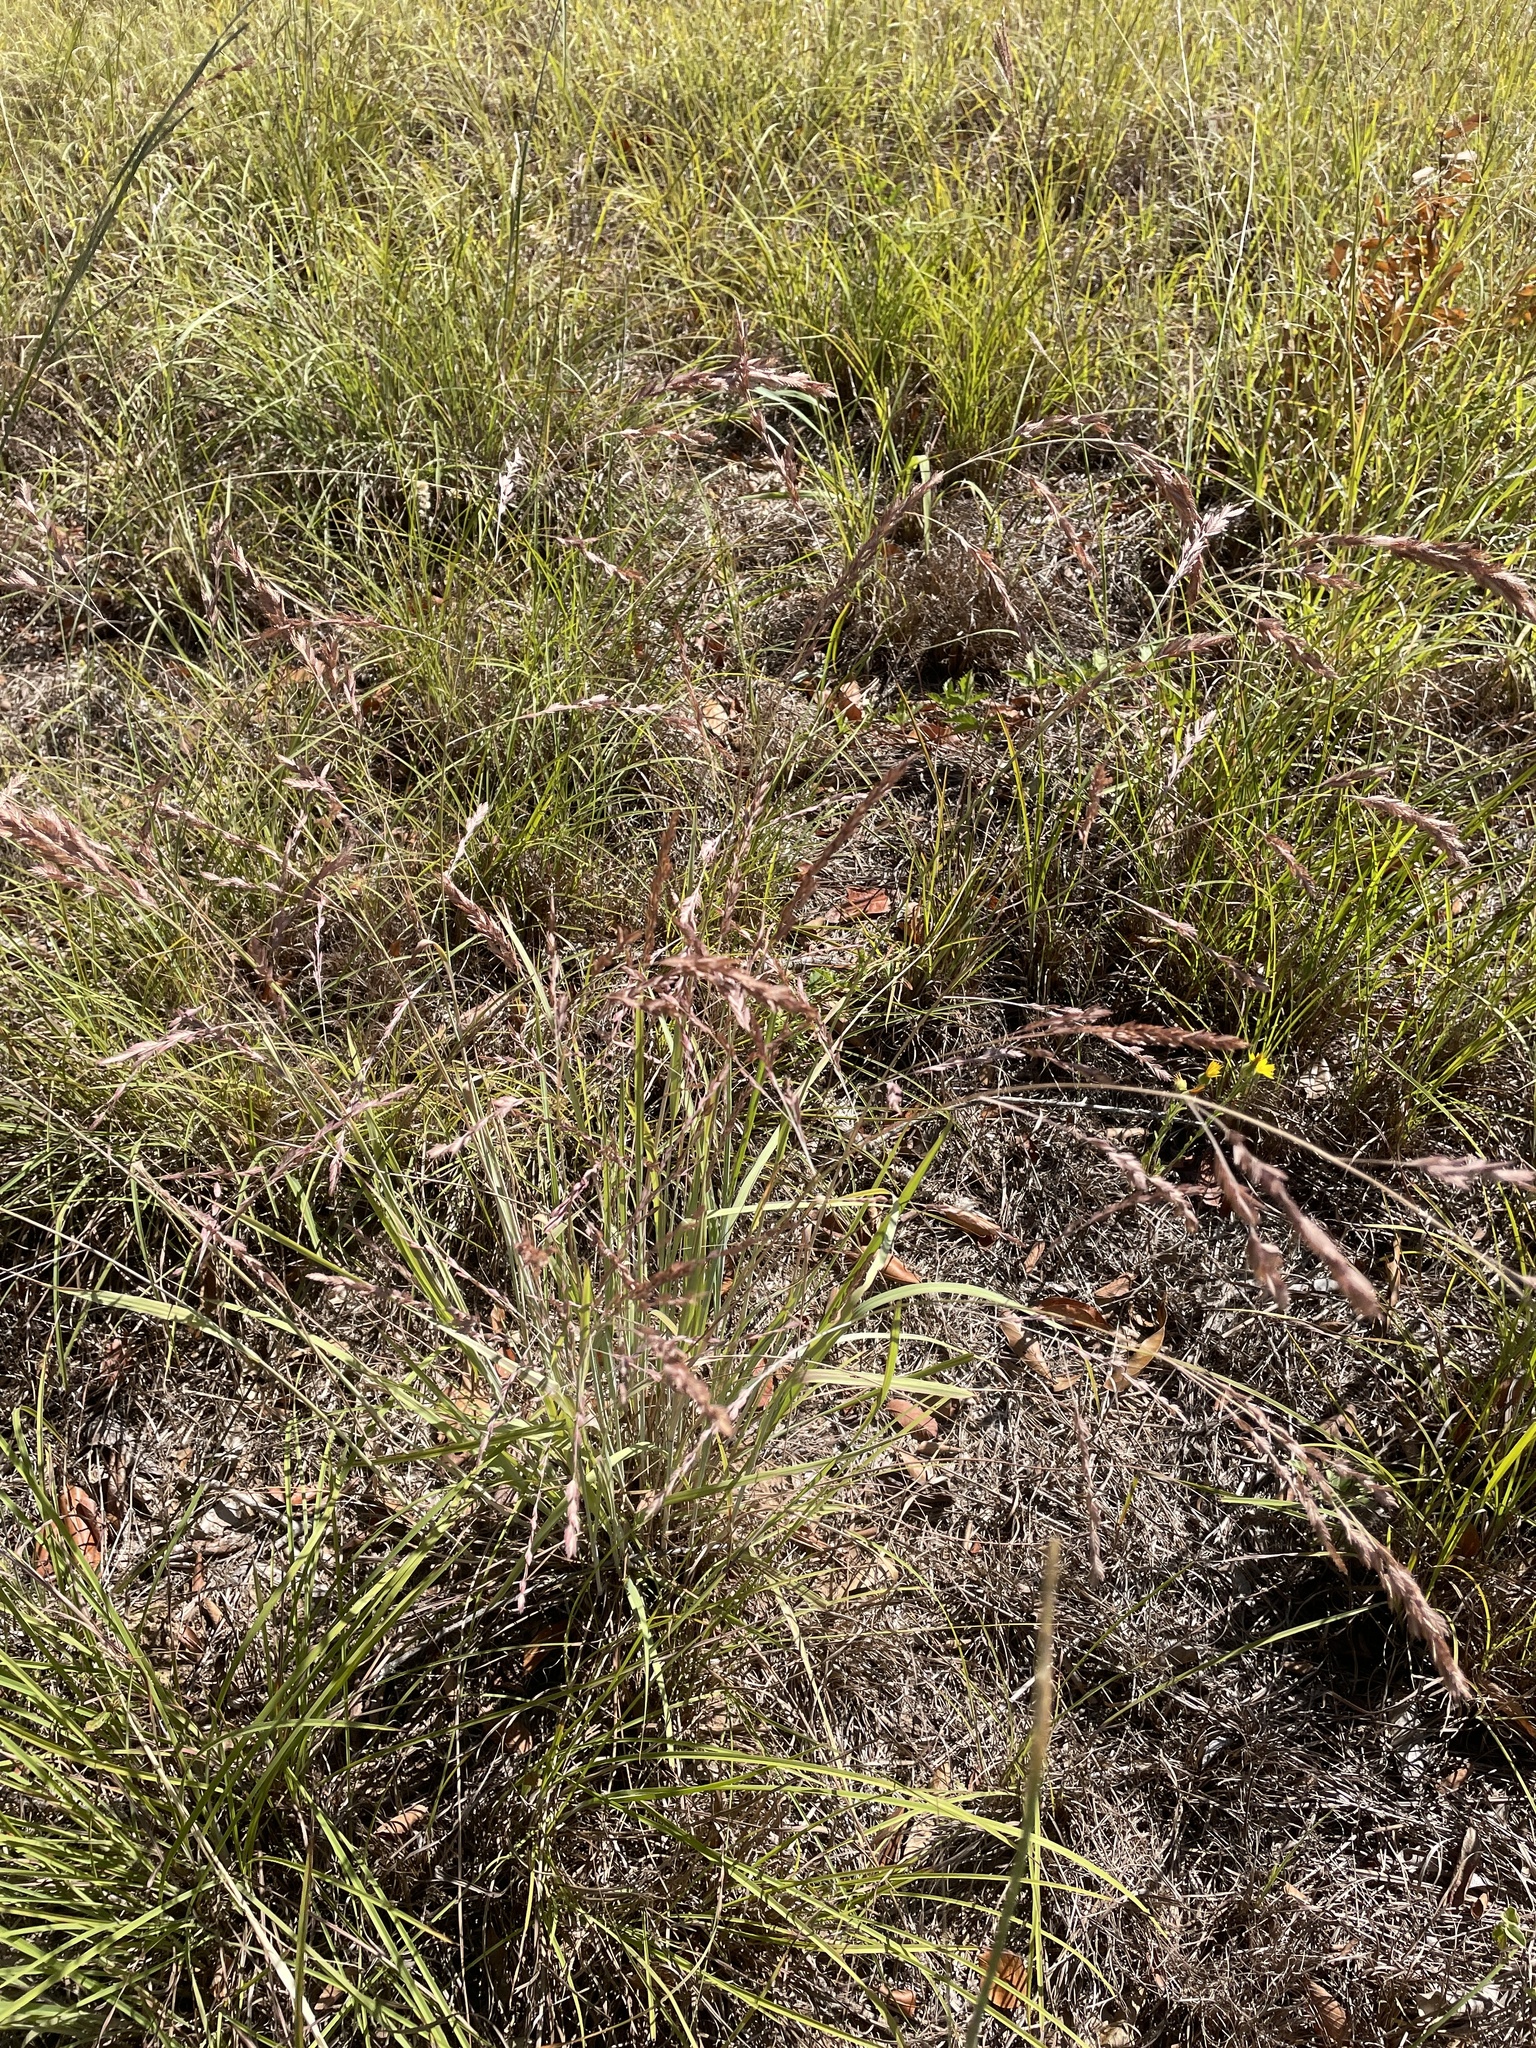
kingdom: Plantae
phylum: Tracheophyta
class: Liliopsida
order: Poales
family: Poaceae
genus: Eragrostis
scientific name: Eragrostis secundiflora
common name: Red love grass
